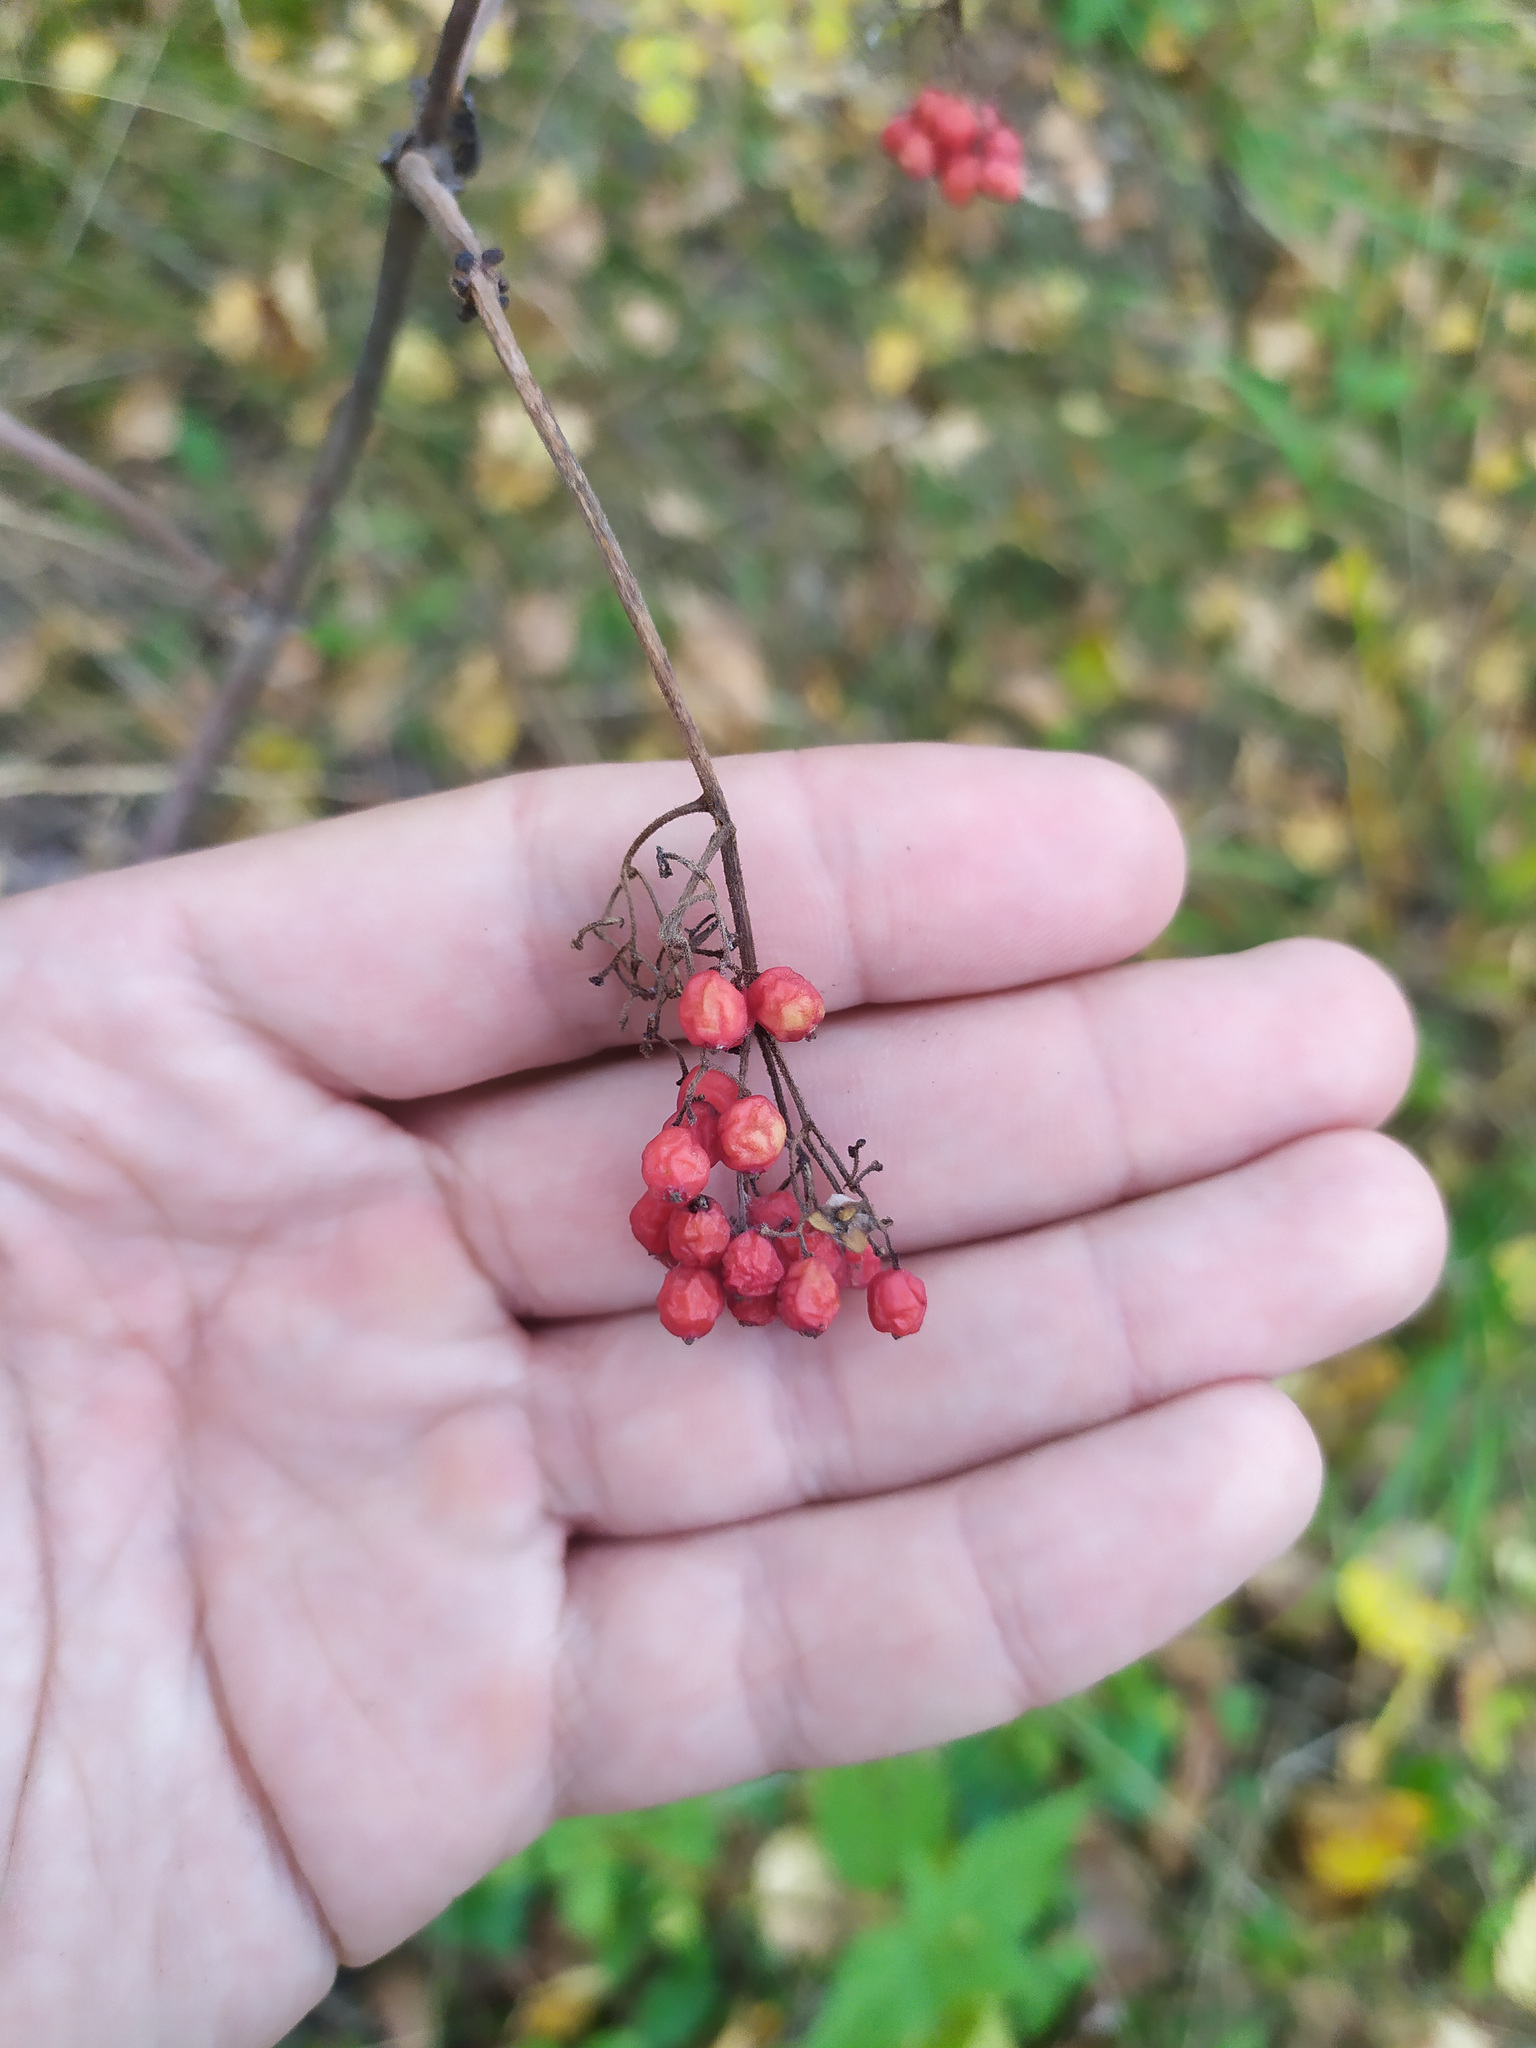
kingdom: Plantae
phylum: Tracheophyta
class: Magnoliopsida
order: Dipsacales
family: Viburnaceae
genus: Sambucus
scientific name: Sambucus sibirica
